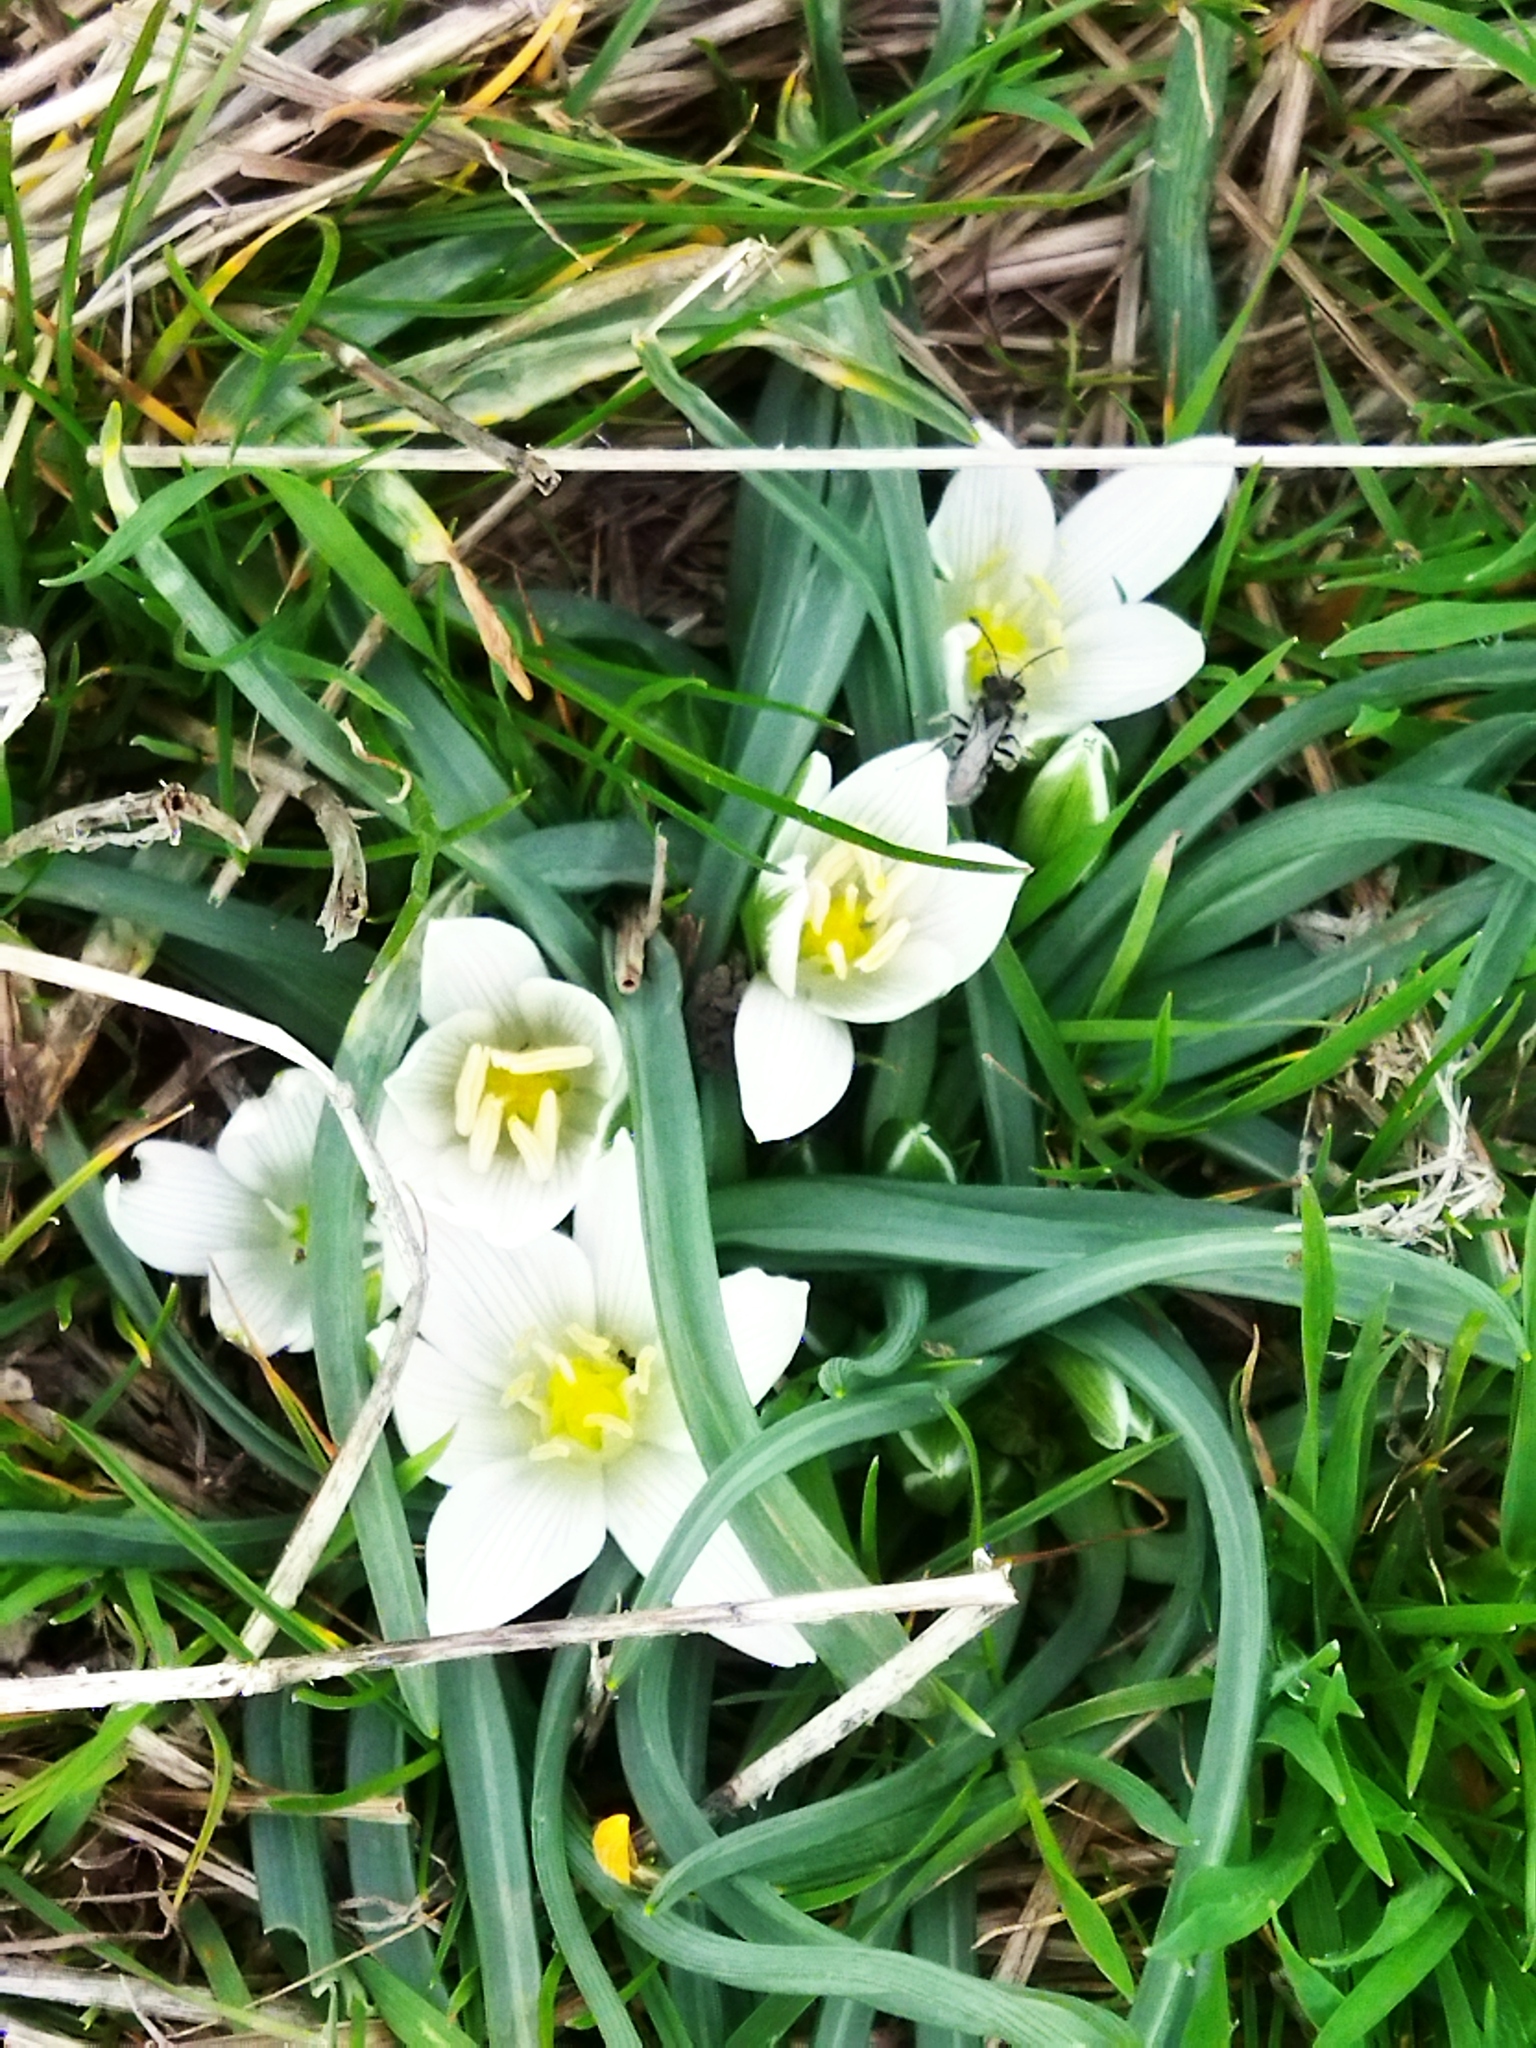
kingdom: Plantae
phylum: Tracheophyta
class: Liliopsida
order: Asparagales
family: Asparagaceae
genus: Ornithogalum
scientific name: Ornithogalum
